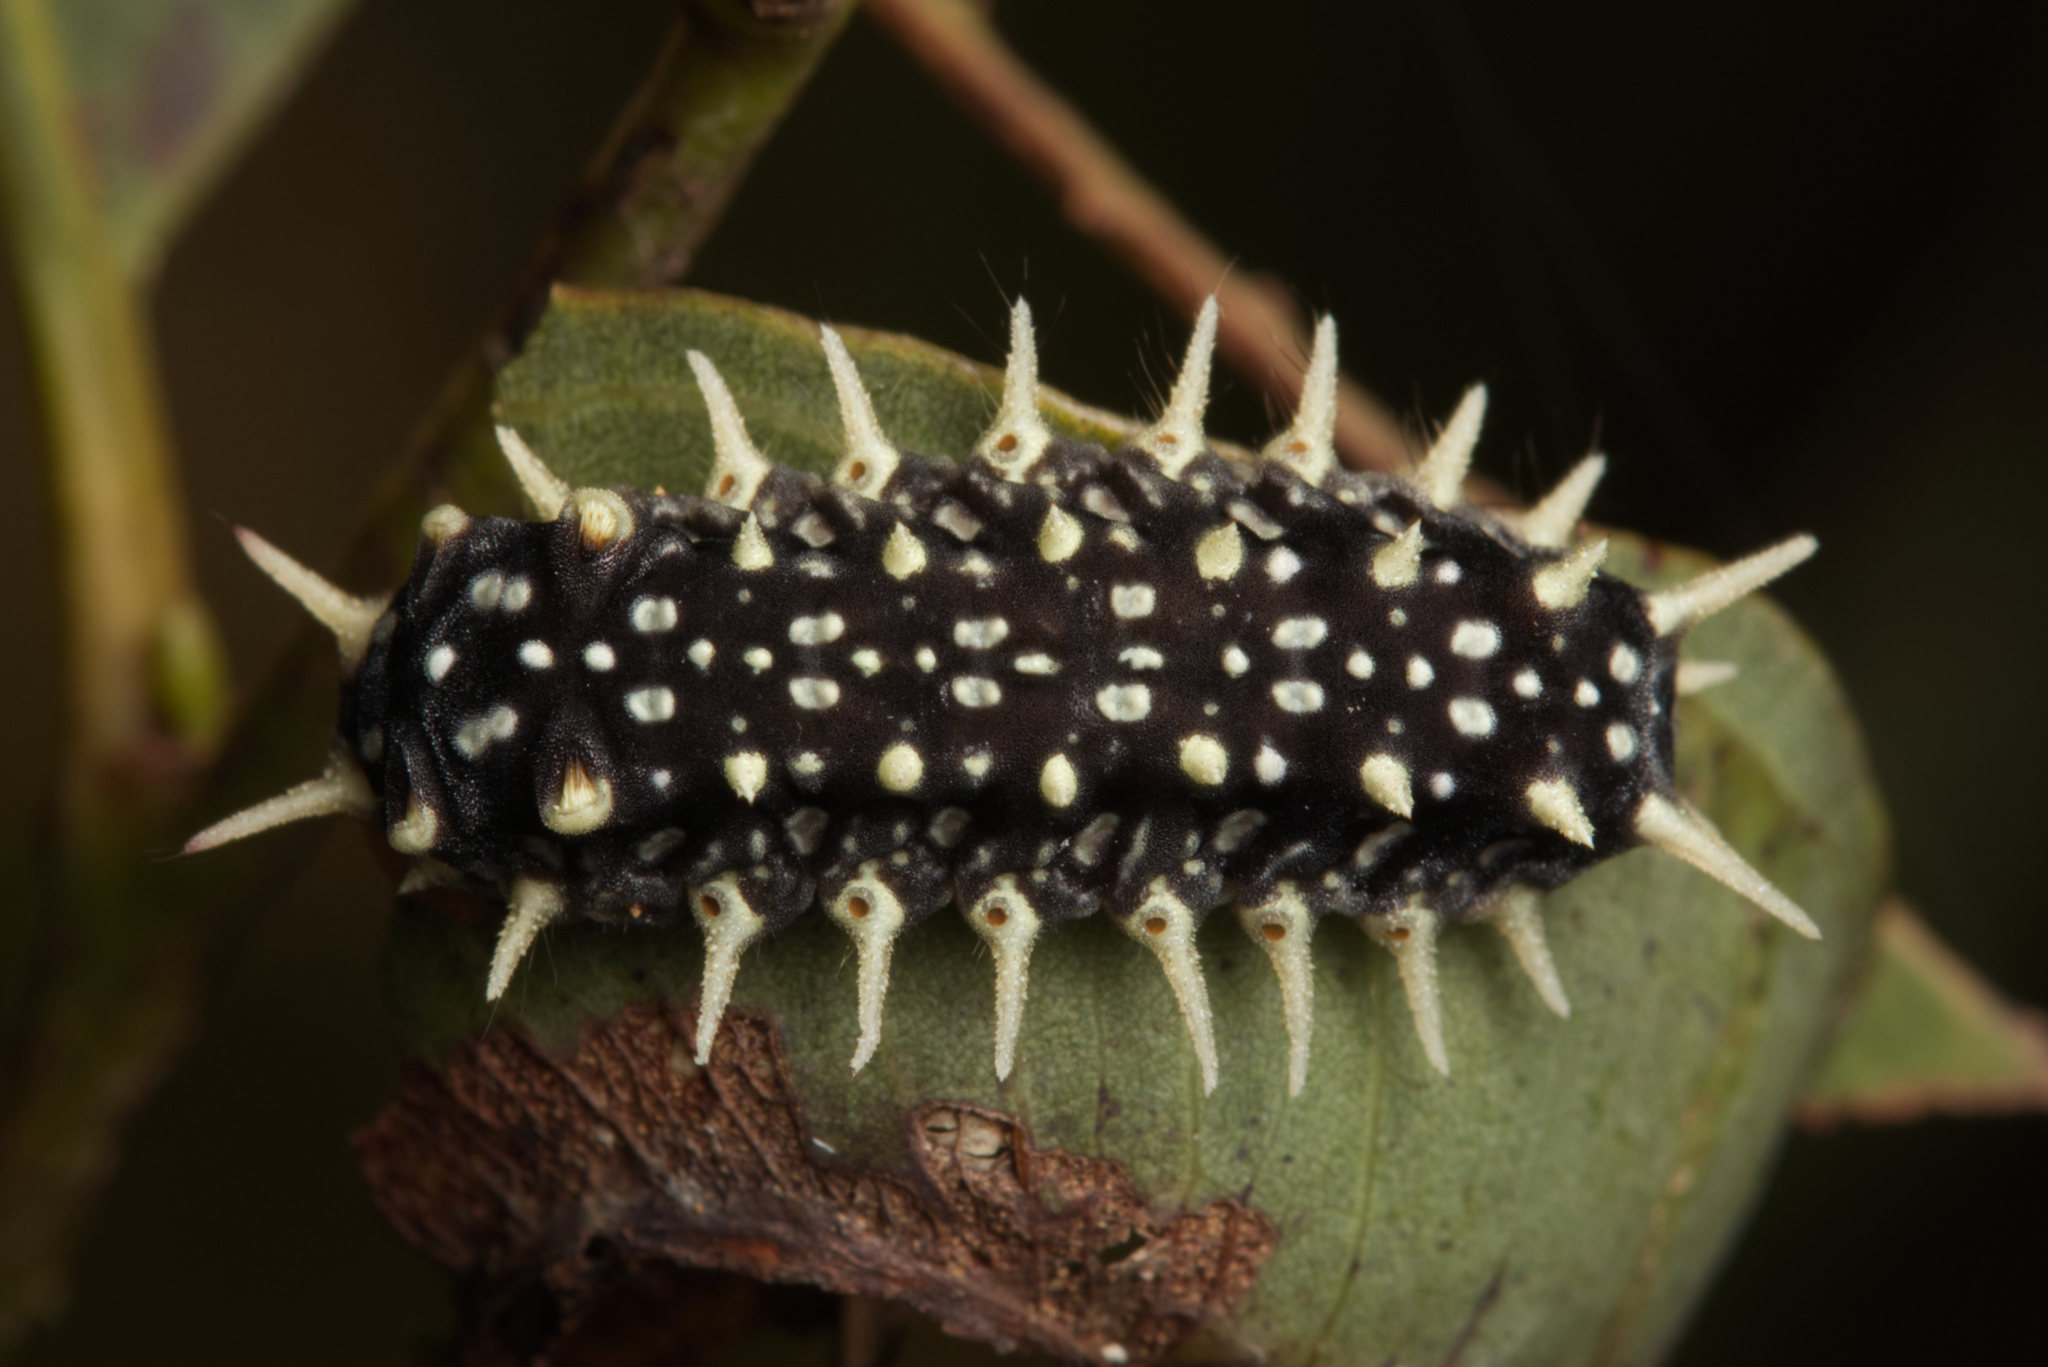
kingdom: Animalia
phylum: Arthropoda
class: Insecta
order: Lepidoptera
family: Limacodidae
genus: Doratifera
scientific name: Doratifera casta
